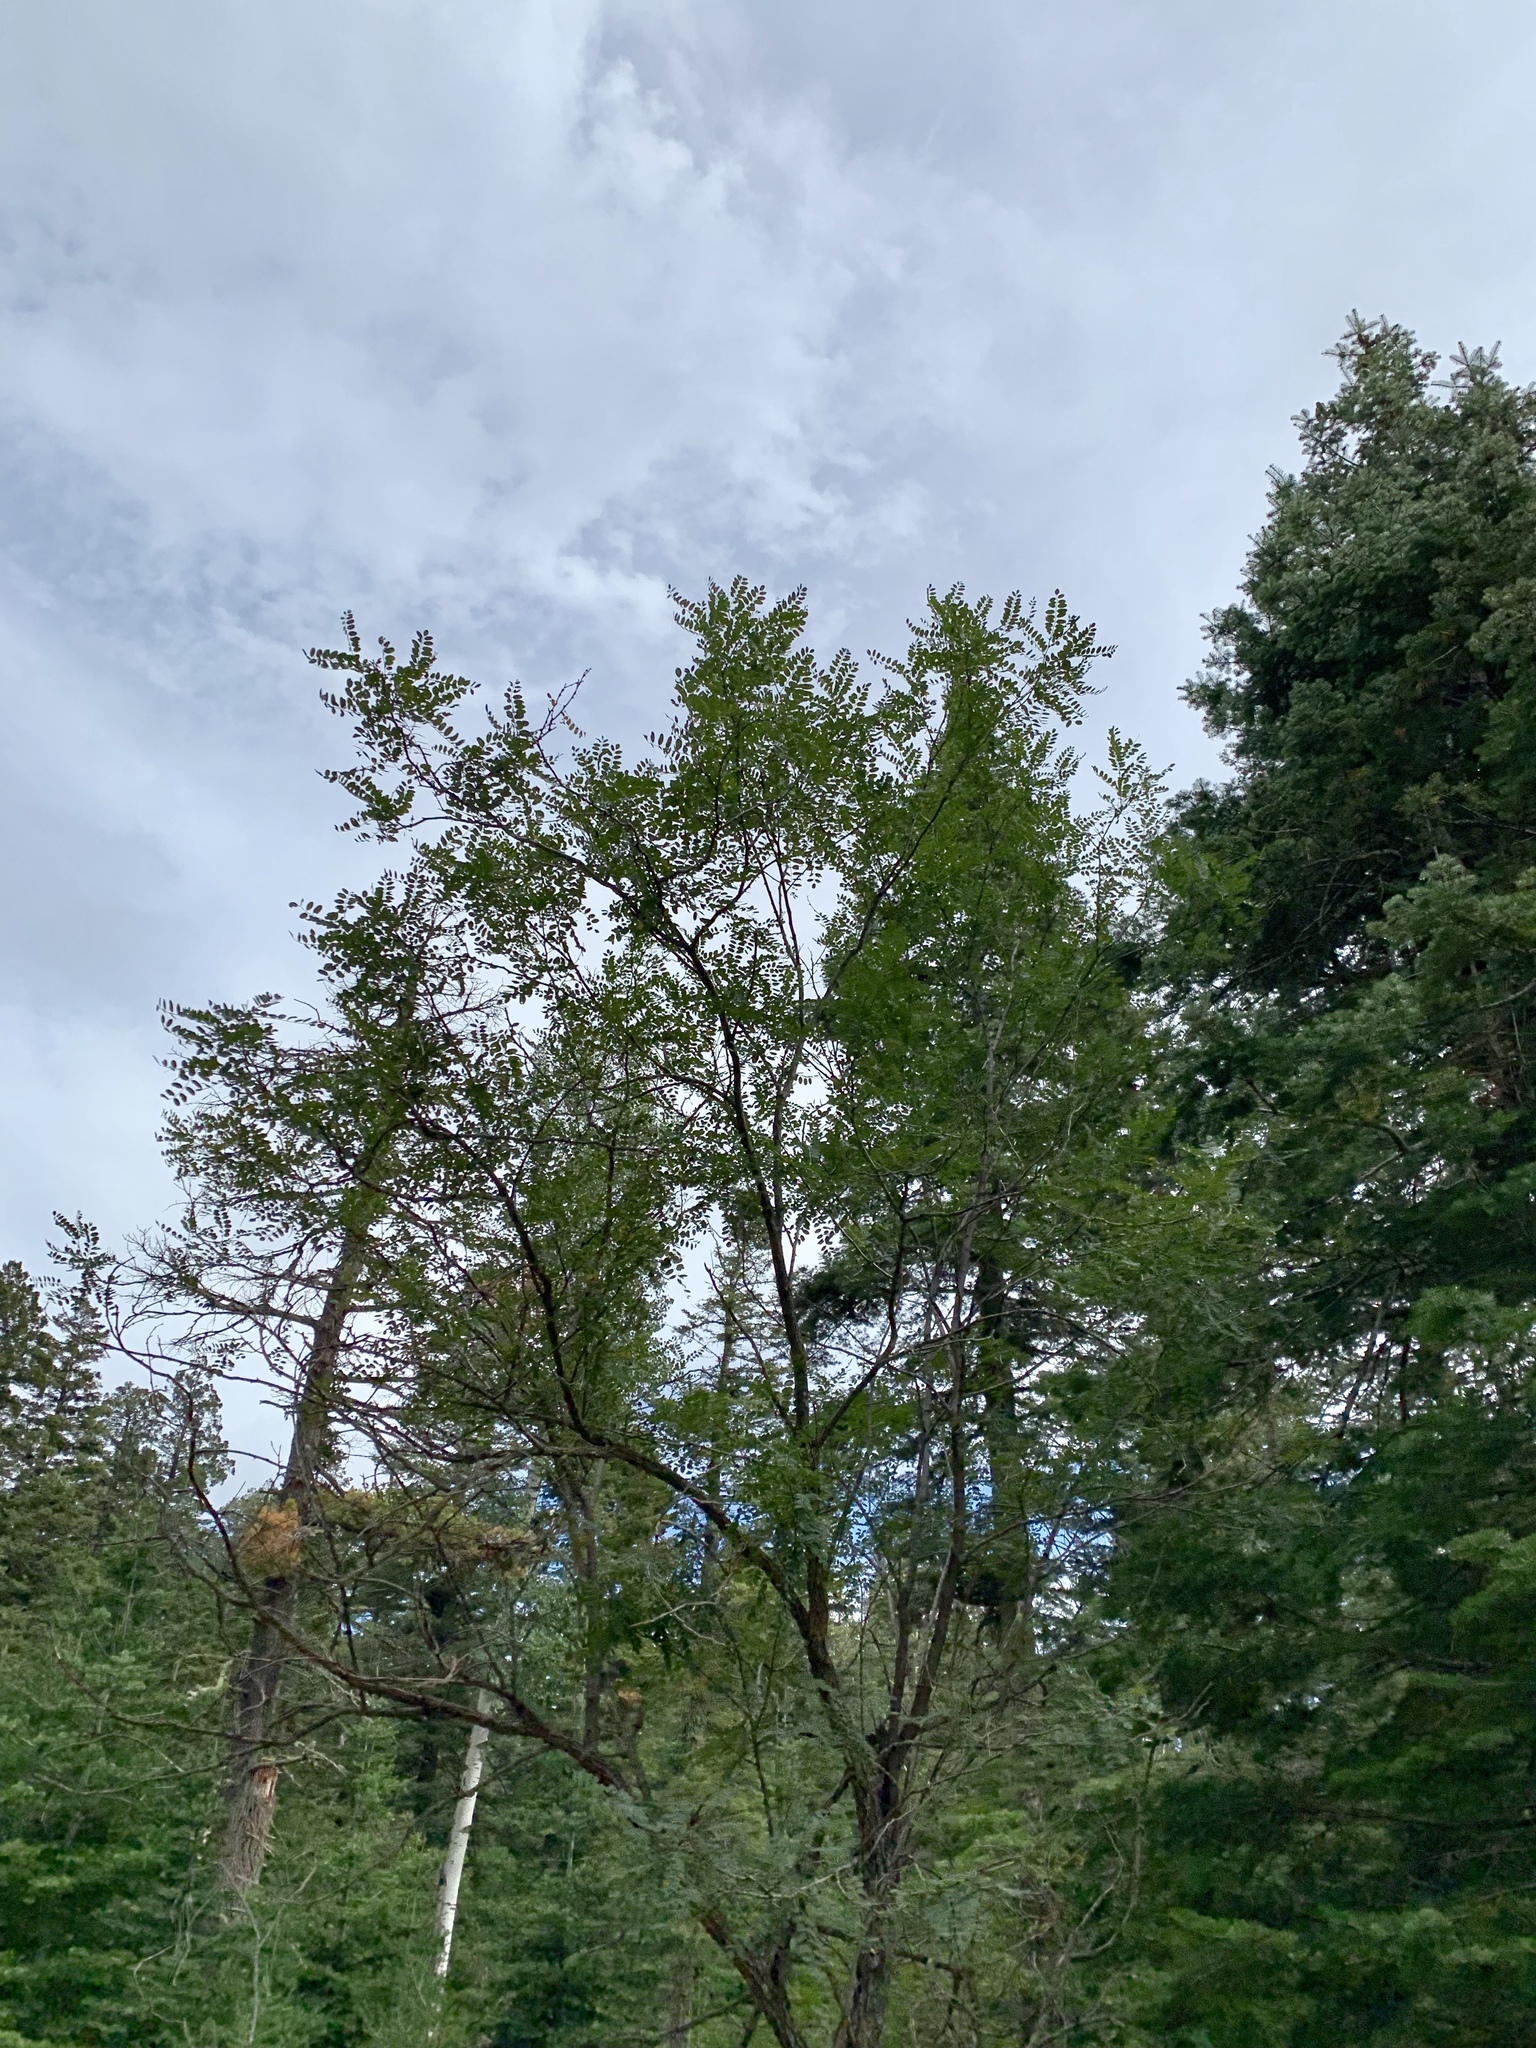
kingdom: Plantae
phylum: Tracheophyta
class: Magnoliopsida
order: Fabales
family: Fabaceae
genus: Robinia
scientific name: Robinia neomexicana
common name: New mexico locust
